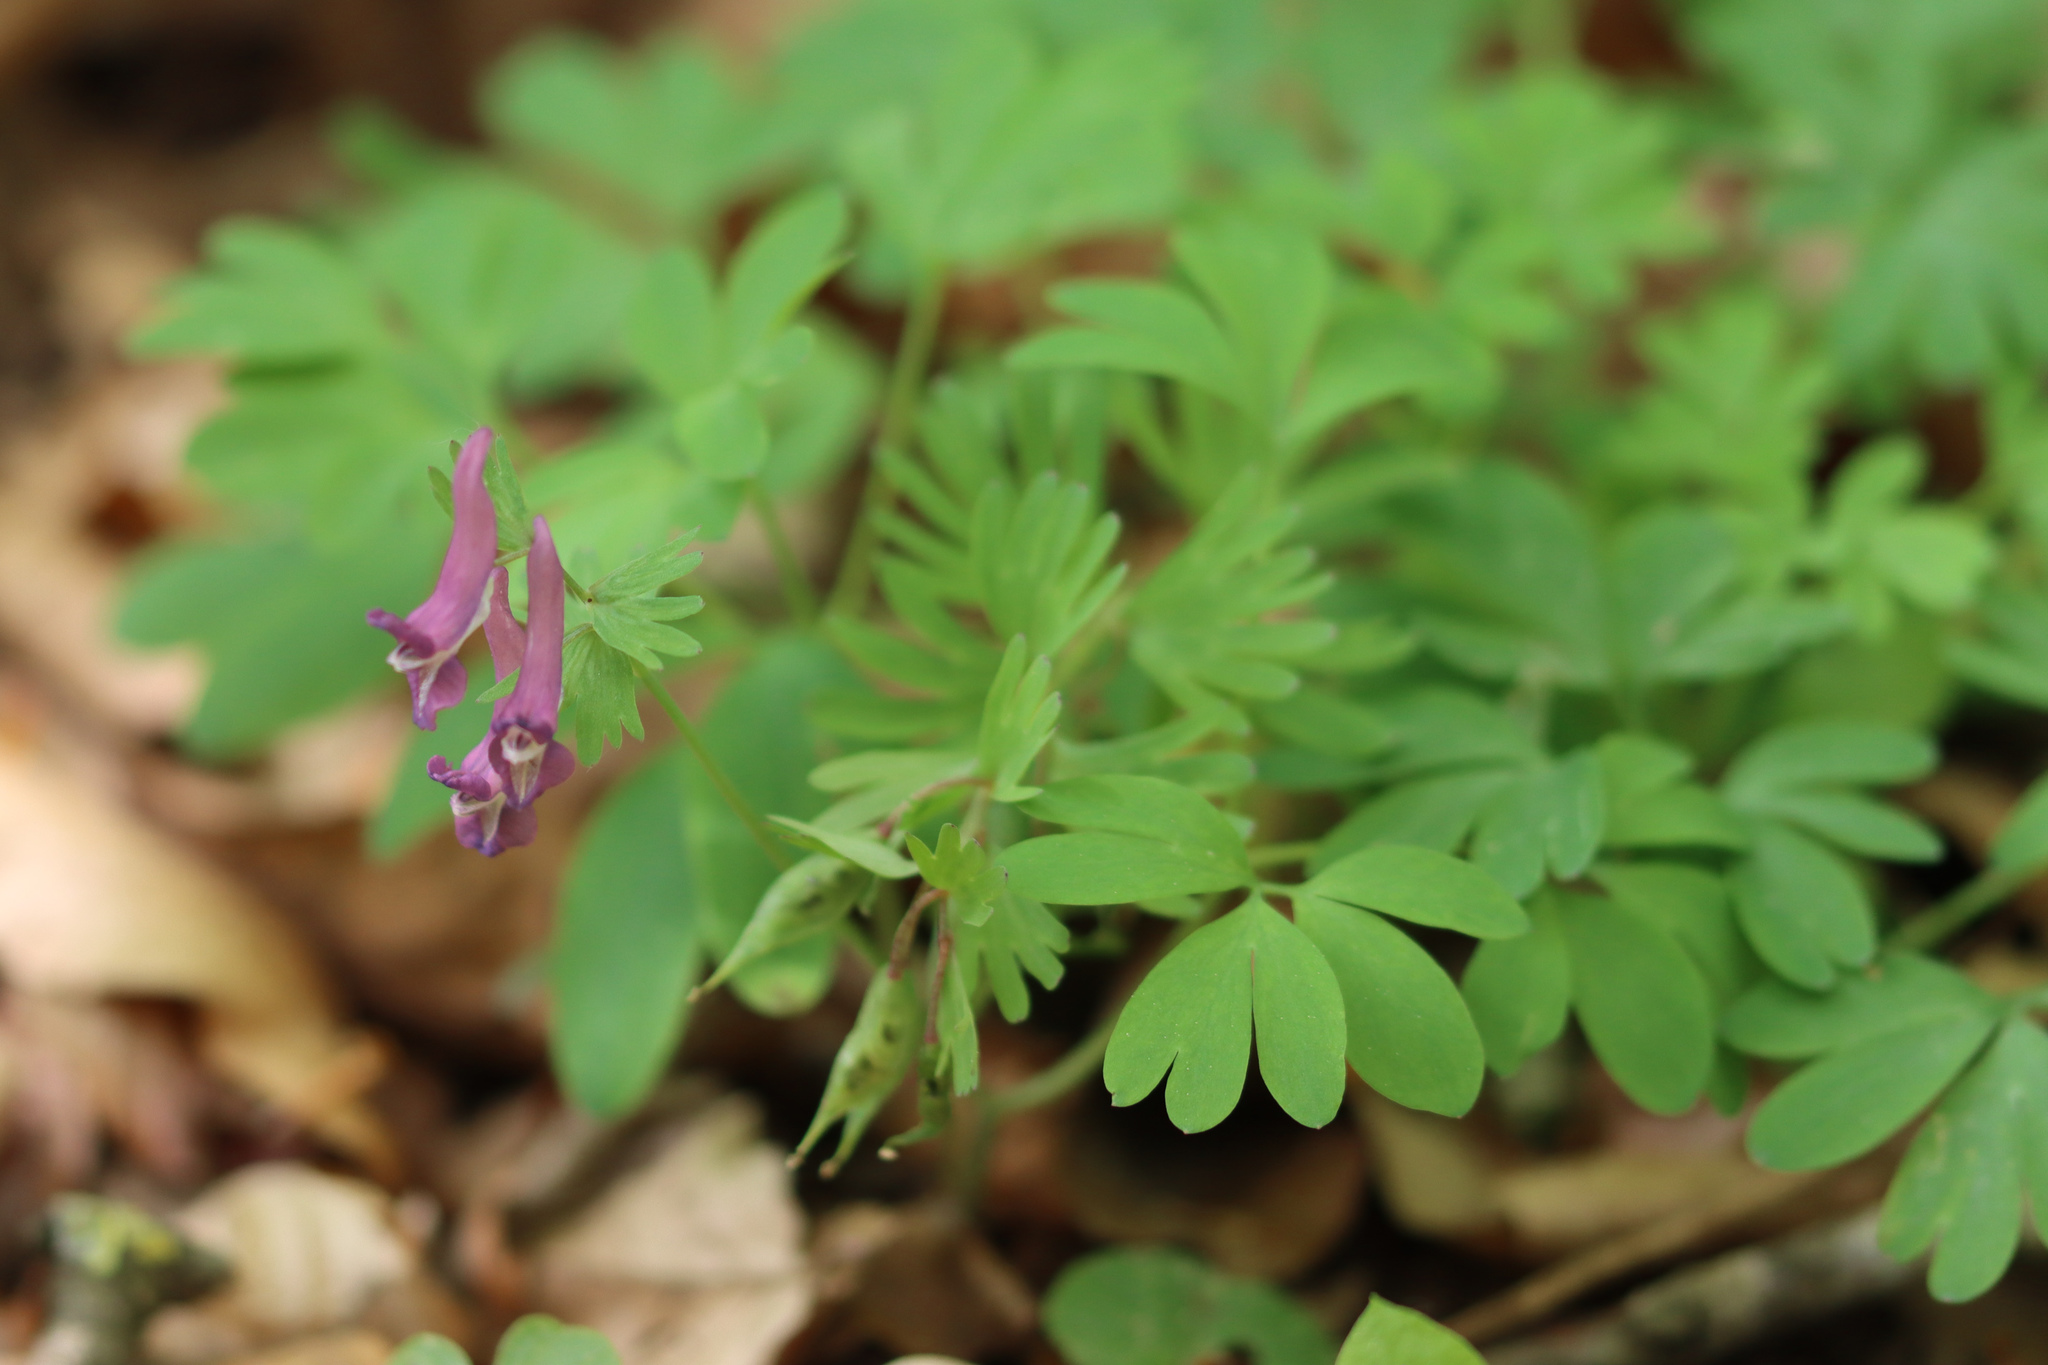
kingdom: Plantae
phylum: Tracheophyta
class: Magnoliopsida
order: Ranunculales
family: Papaveraceae
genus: Corydalis
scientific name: Corydalis solida
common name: Bird-in-a-bush
